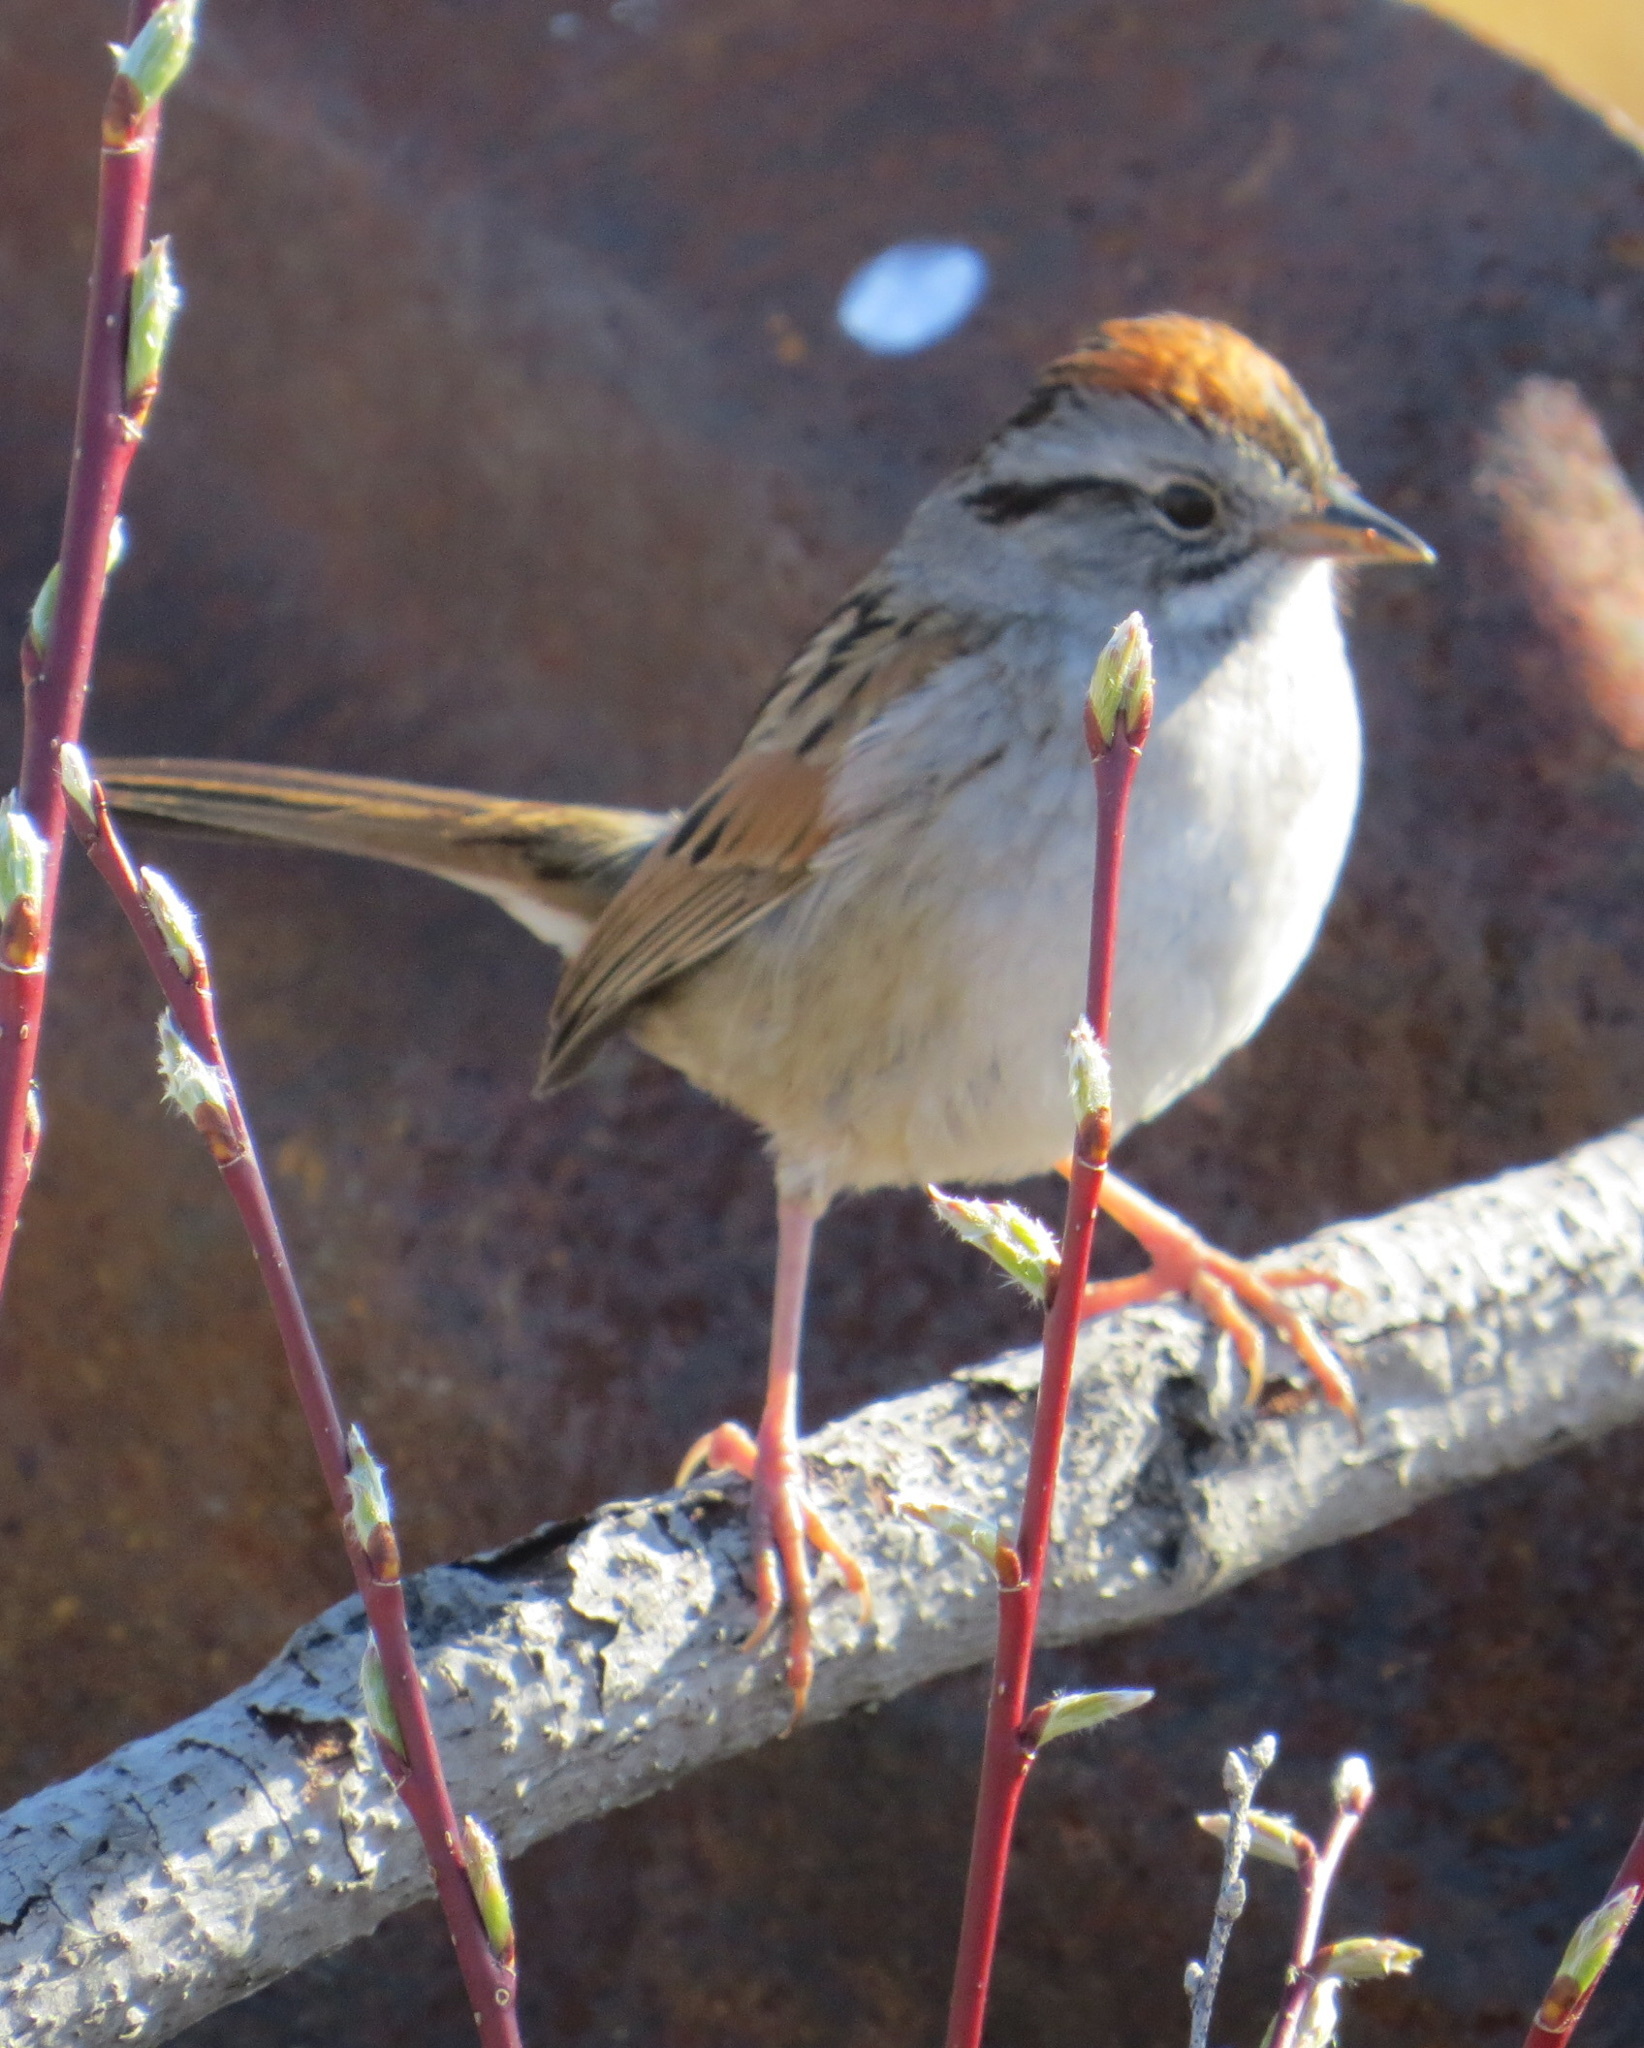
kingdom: Animalia
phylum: Chordata
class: Aves
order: Passeriformes
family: Passerellidae
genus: Melospiza
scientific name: Melospiza georgiana
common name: Swamp sparrow
